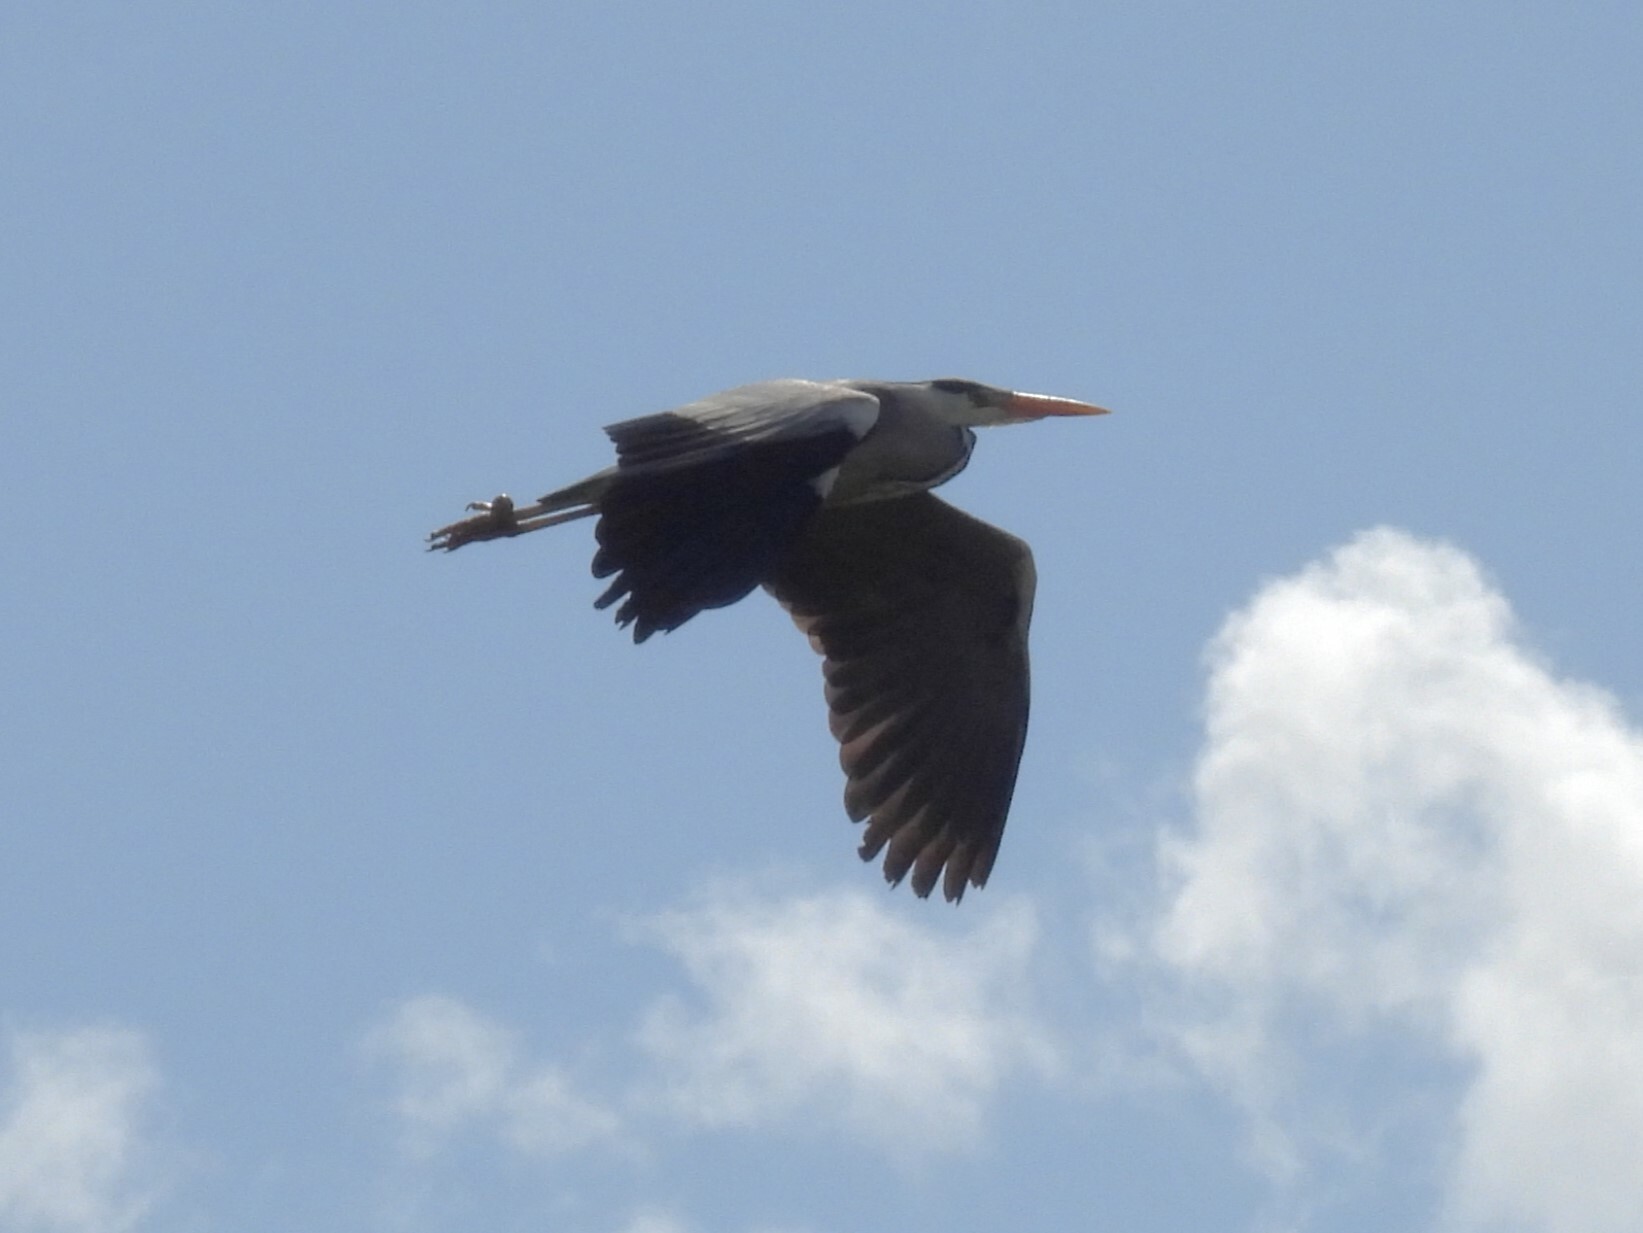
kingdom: Animalia
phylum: Chordata
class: Aves
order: Pelecaniformes
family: Ardeidae
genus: Ardea
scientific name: Ardea cinerea
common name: Grey heron
